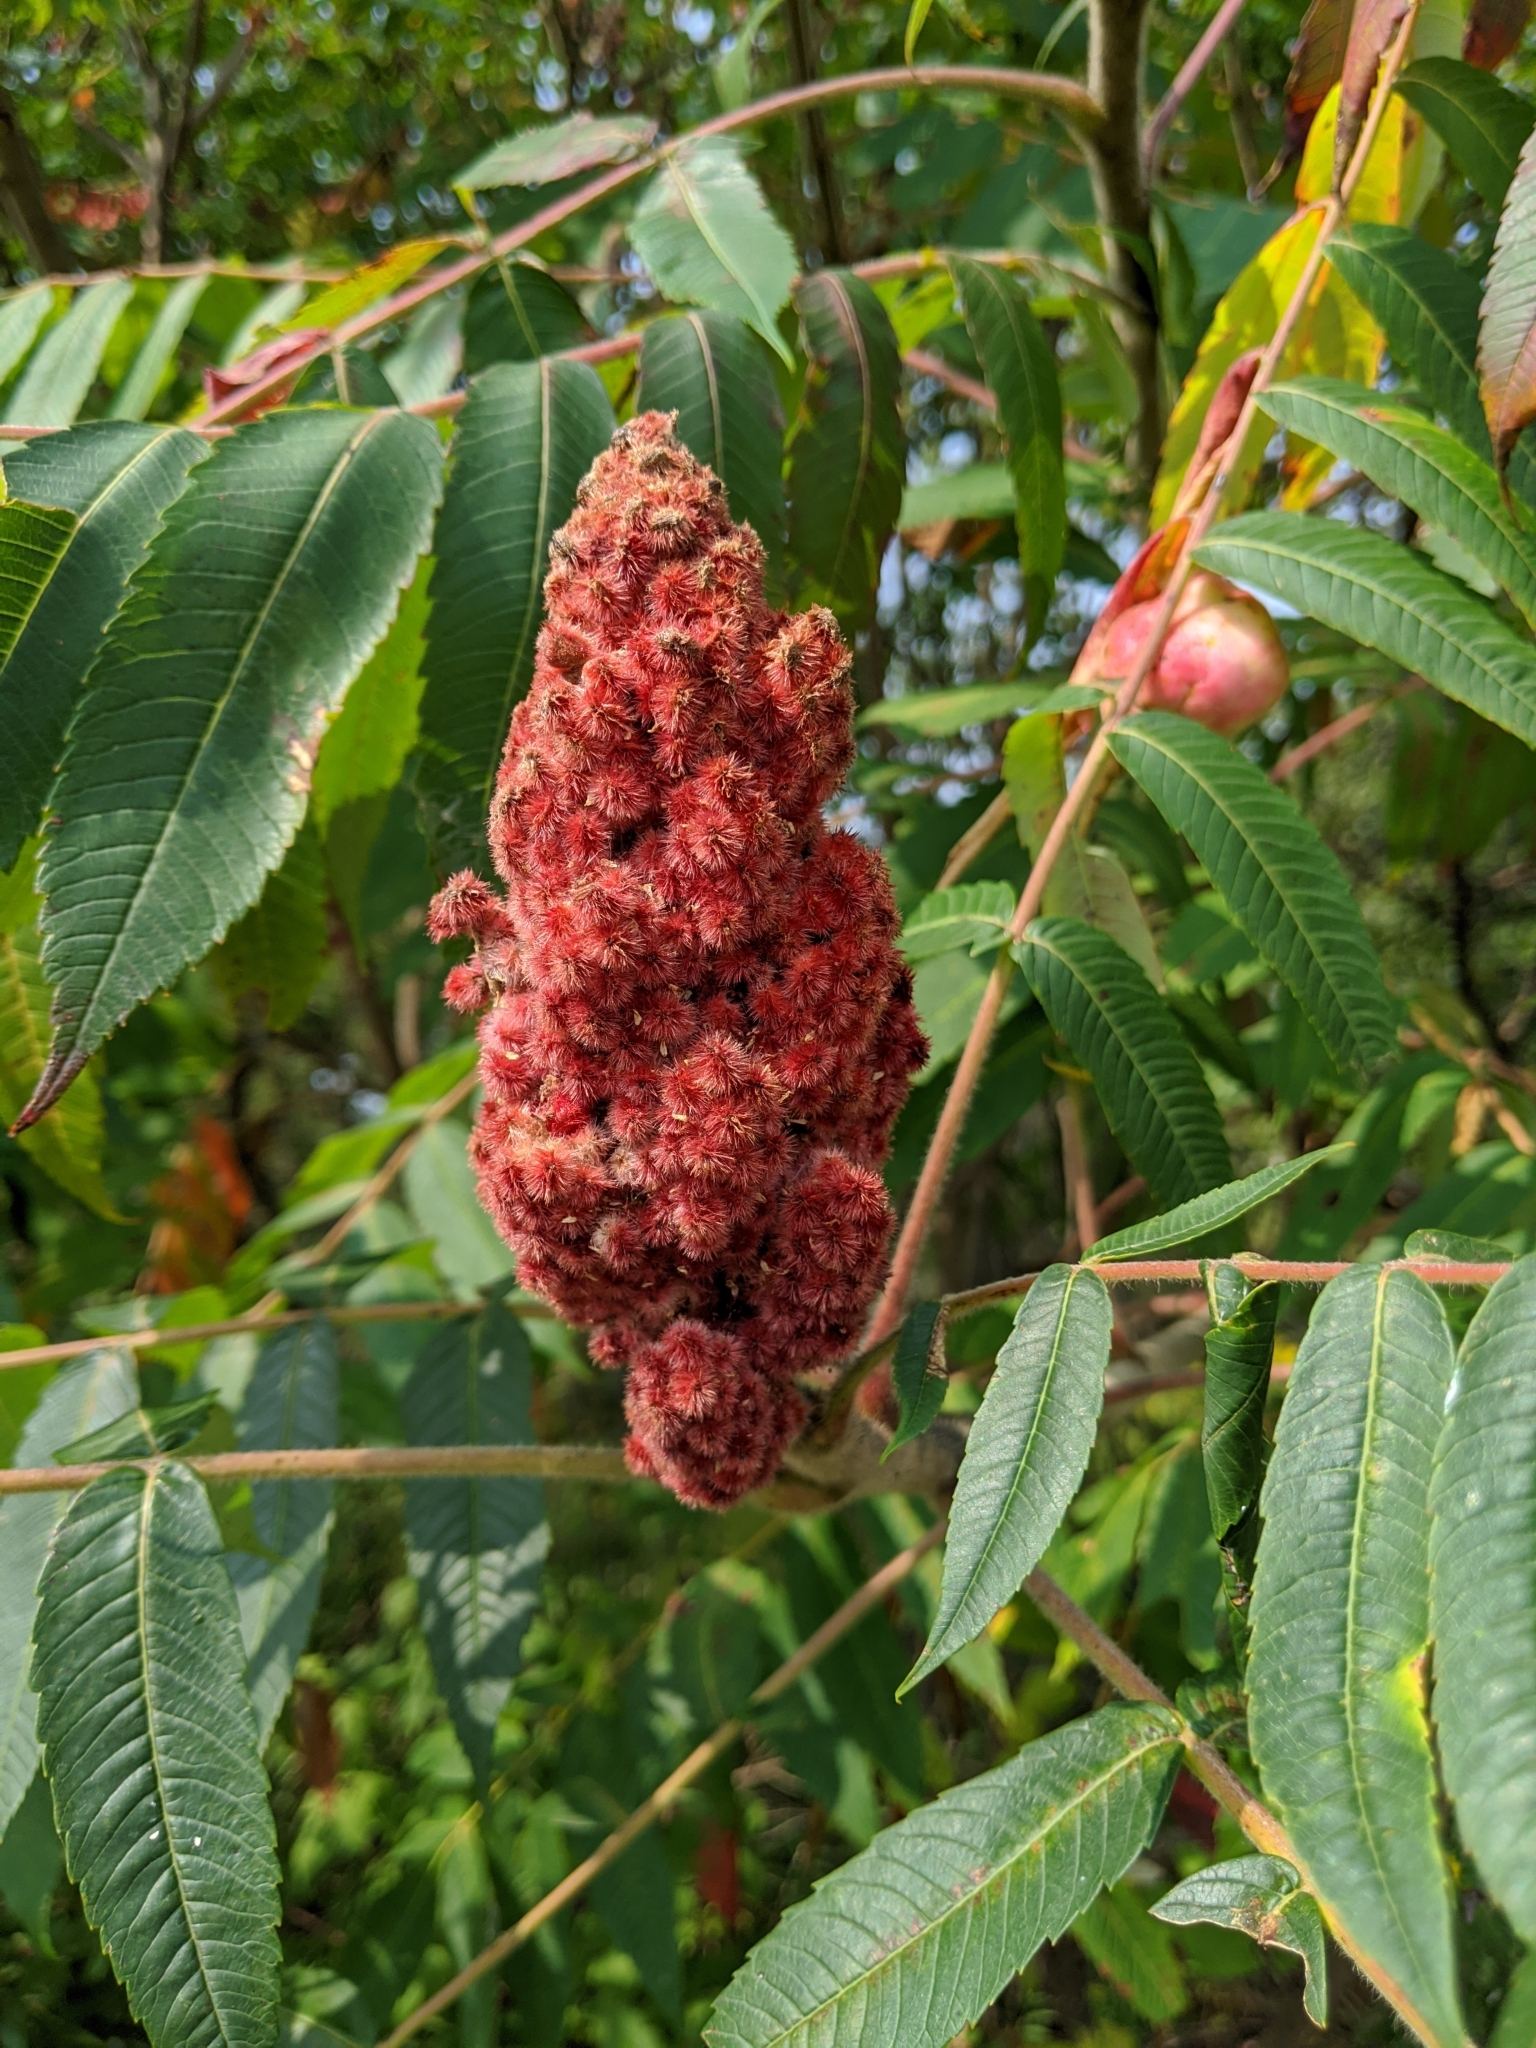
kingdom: Plantae
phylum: Tracheophyta
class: Magnoliopsida
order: Sapindales
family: Anacardiaceae
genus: Rhus
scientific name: Rhus typhina
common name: Staghorn sumac
